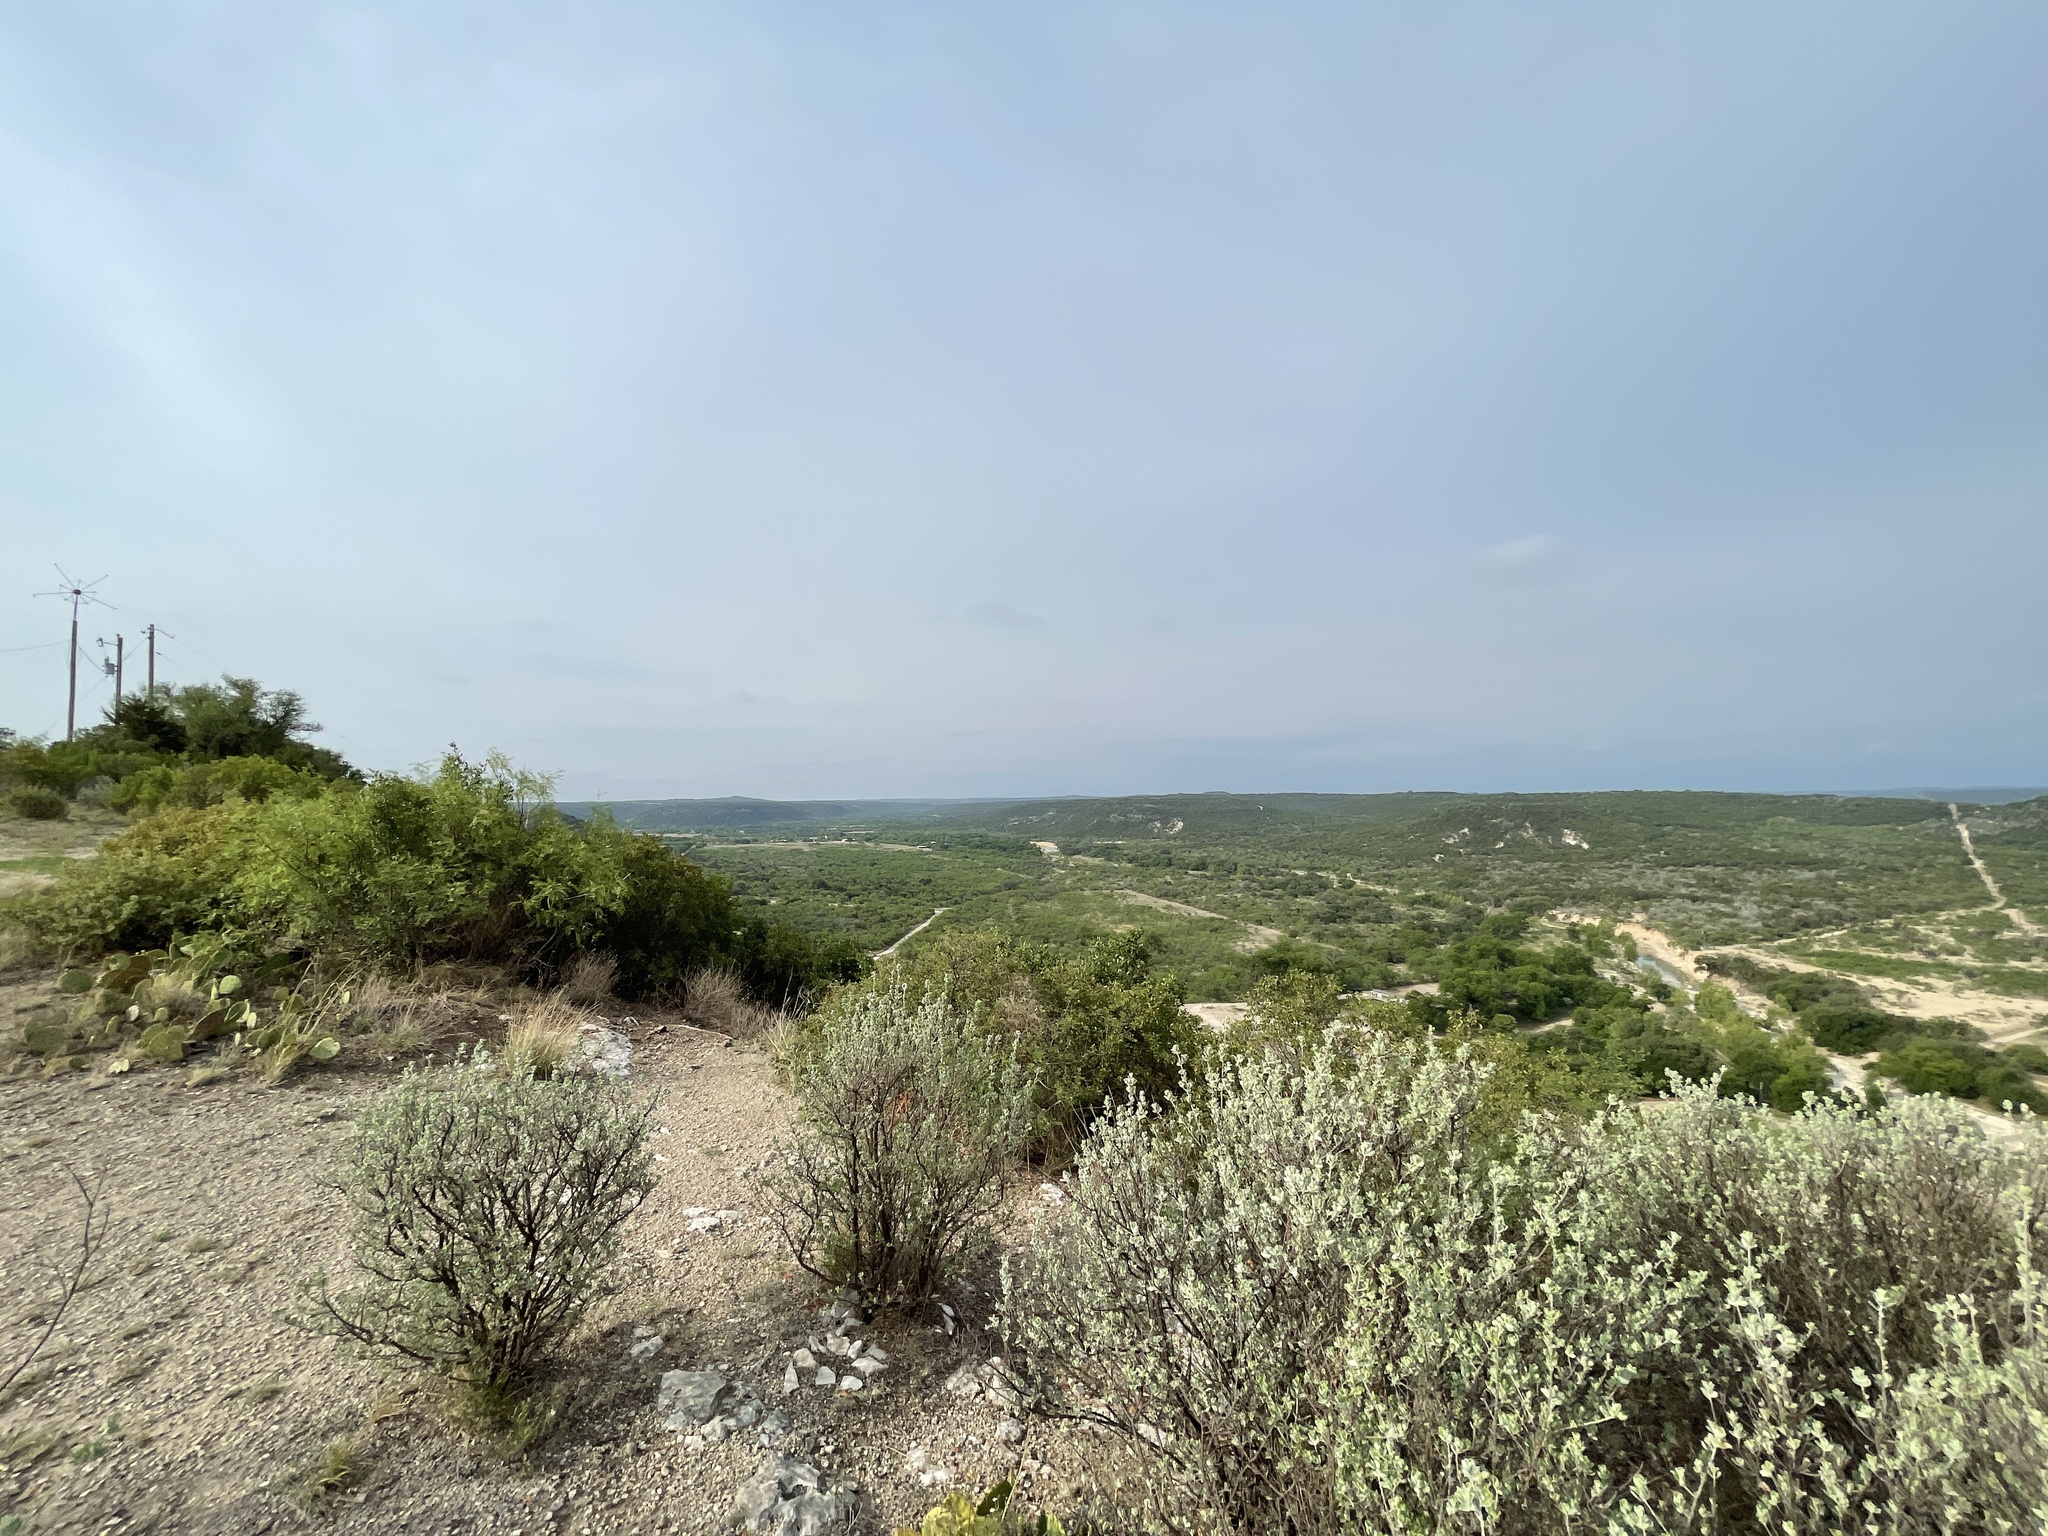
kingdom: Plantae
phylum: Tracheophyta
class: Magnoliopsida
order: Lamiales
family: Scrophulariaceae
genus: Leucophyllum
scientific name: Leucophyllum frutescens
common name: Texas silverleaf
